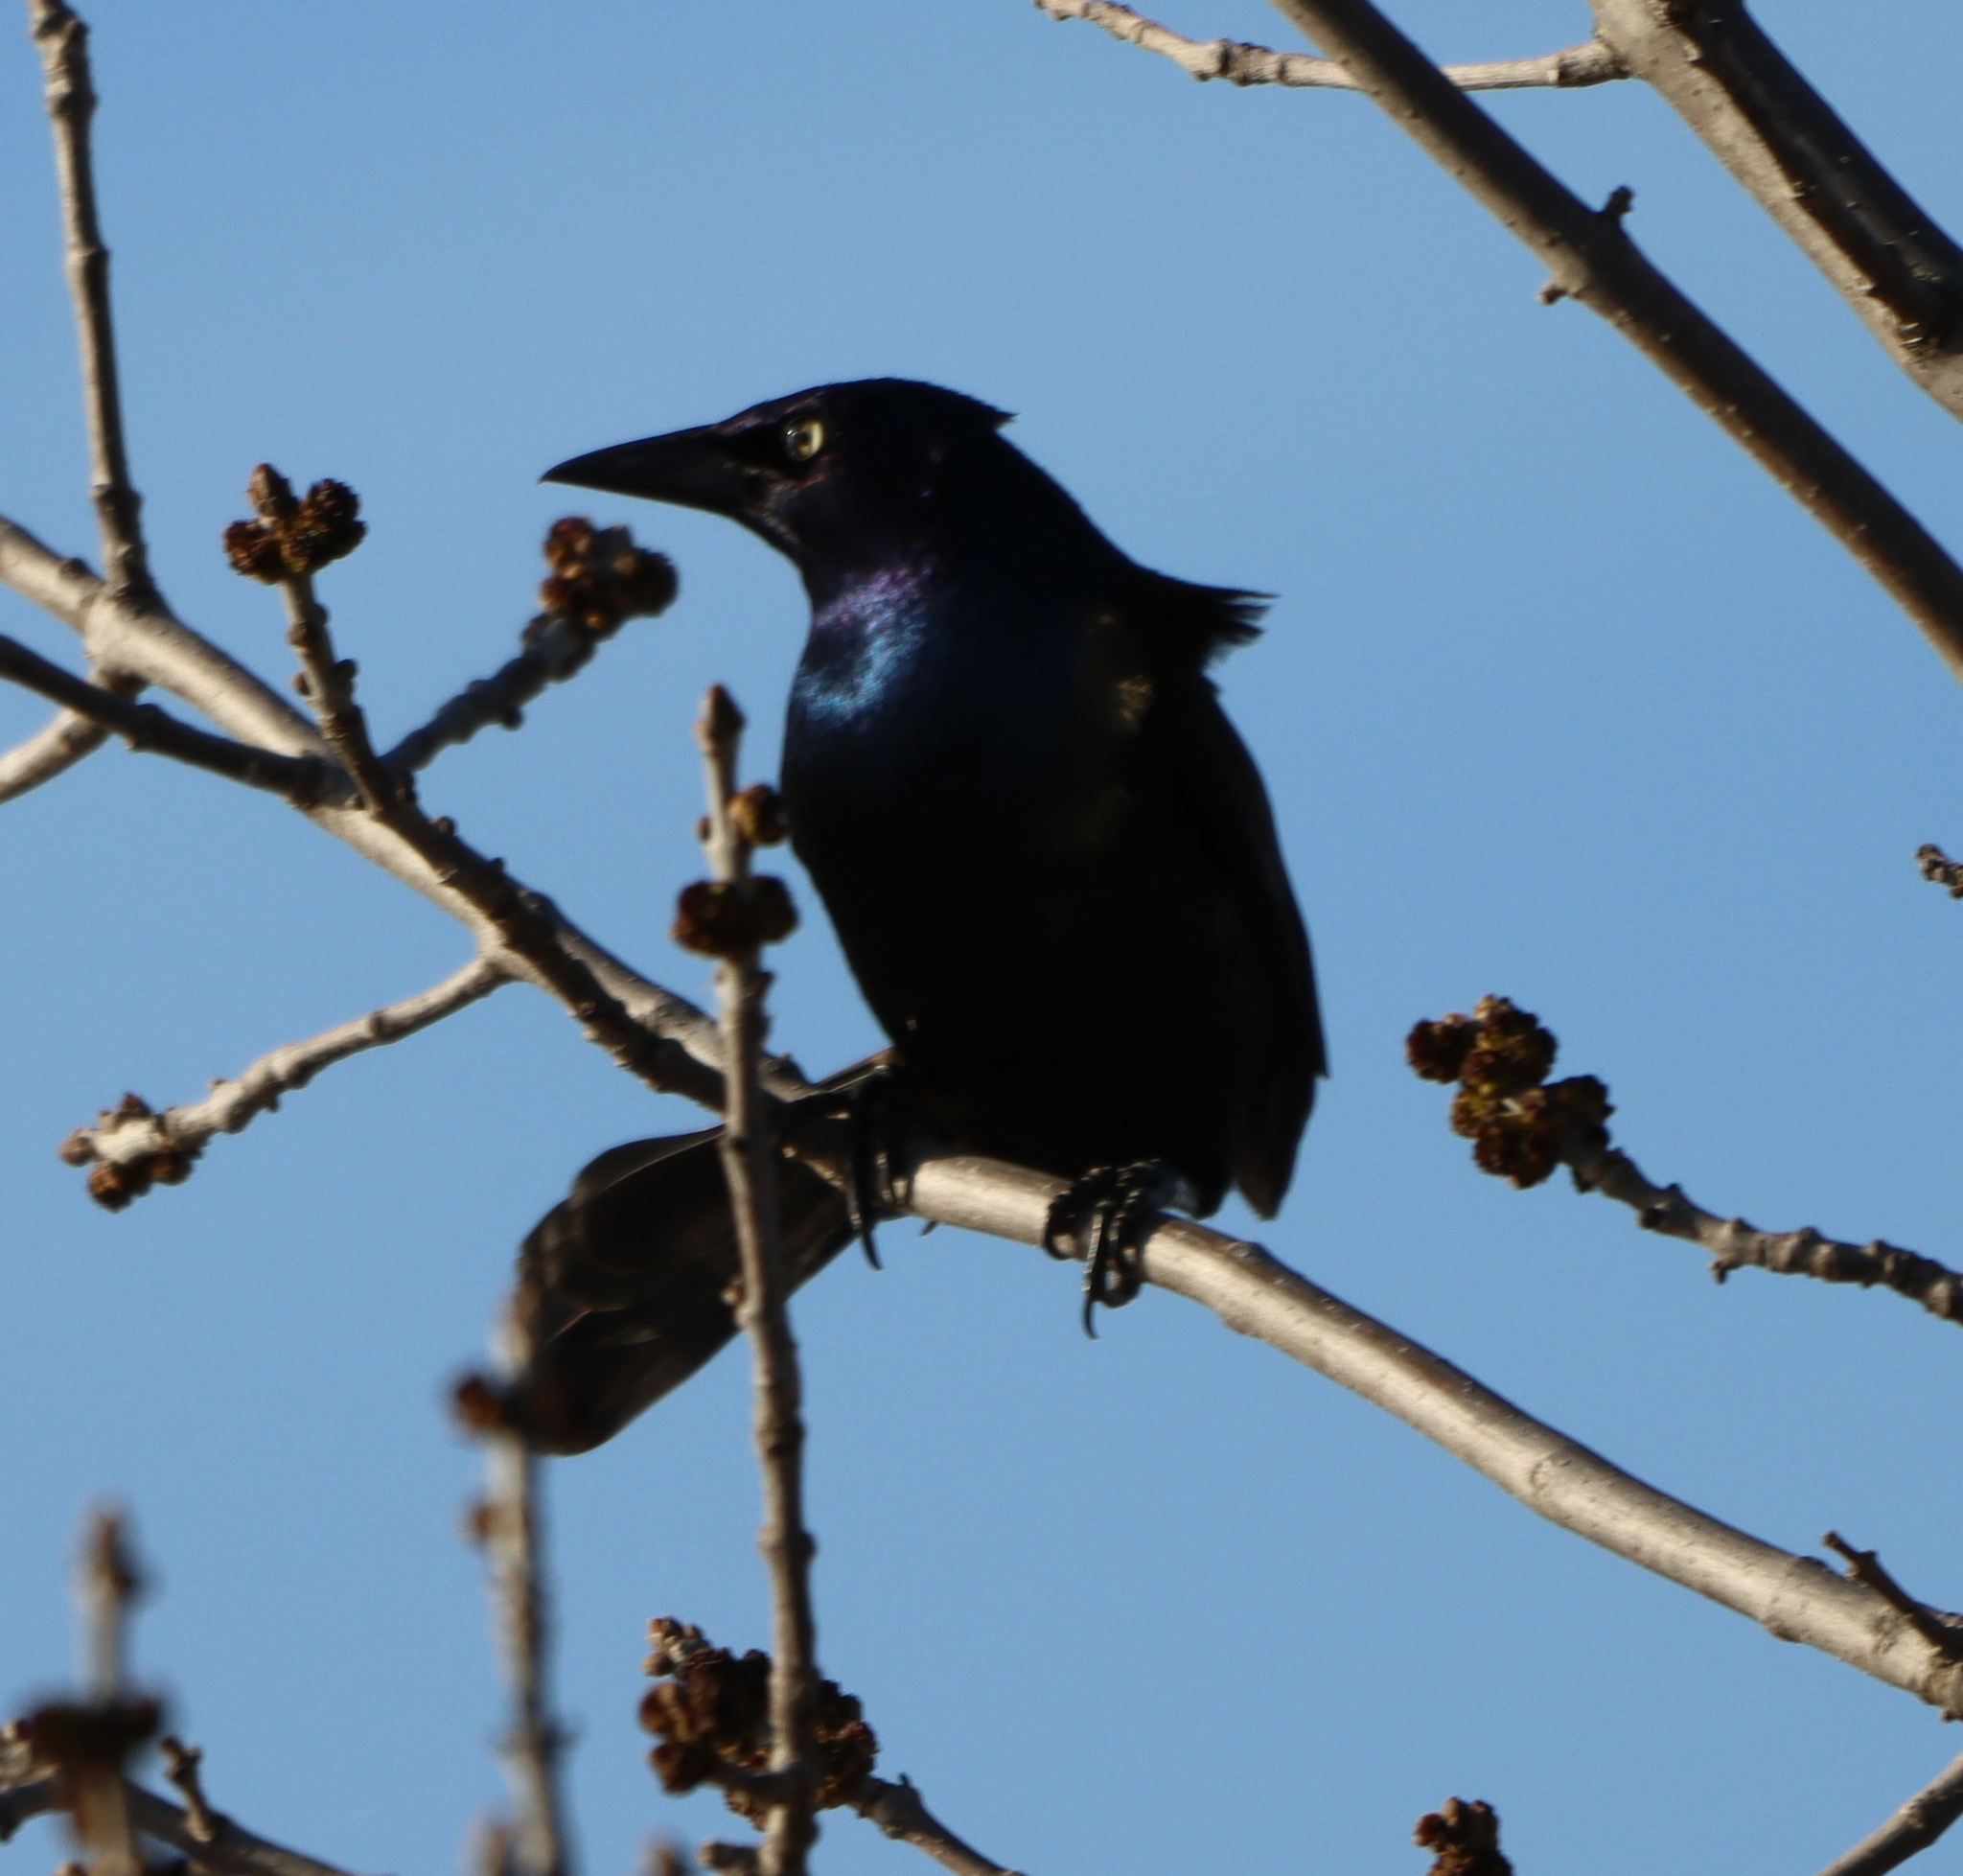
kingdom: Animalia
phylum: Chordata
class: Aves
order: Passeriformes
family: Icteridae
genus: Quiscalus
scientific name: Quiscalus quiscula
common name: Common grackle
